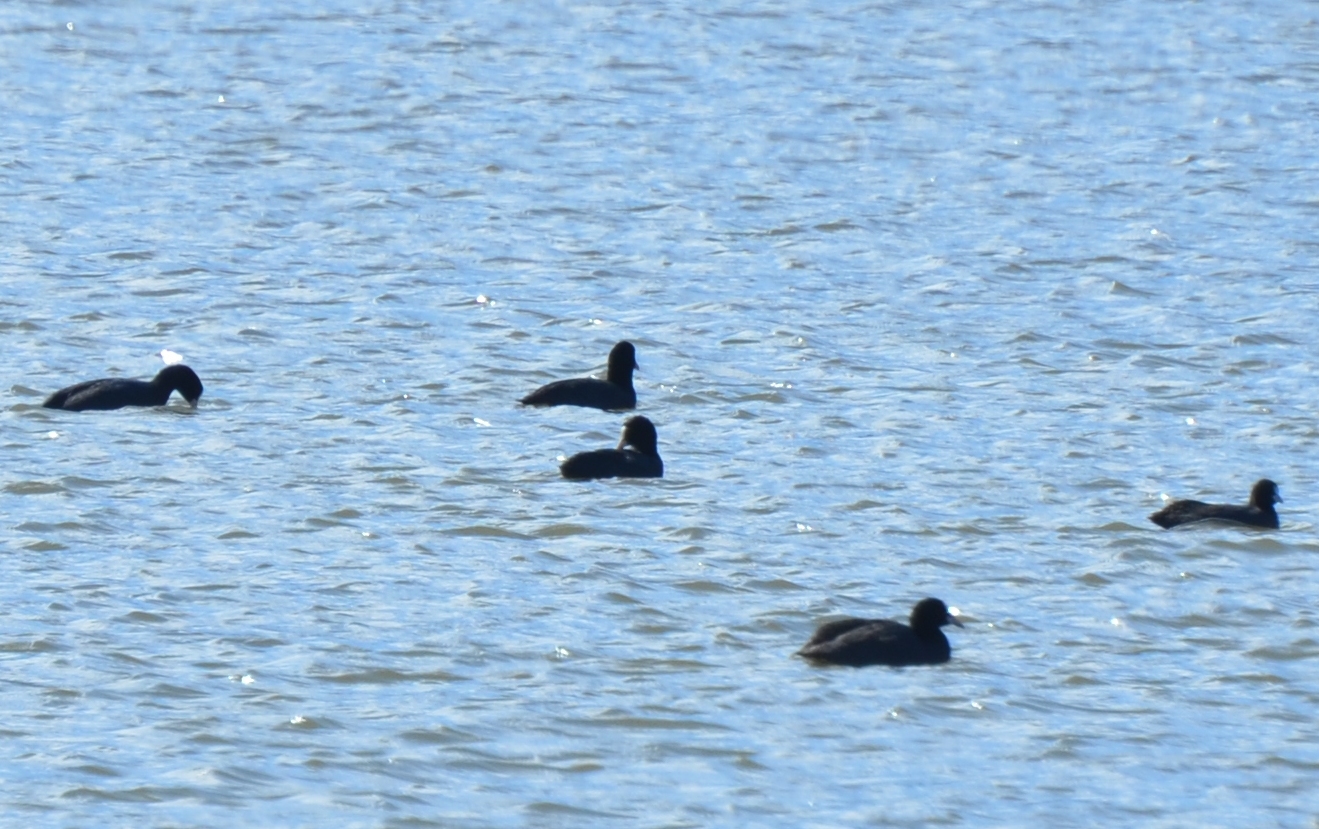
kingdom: Animalia
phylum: Chordata
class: Aves
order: Gruiformes
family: Rallidae
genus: Fulica
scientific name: Fulica atra
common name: Eurasian coot
